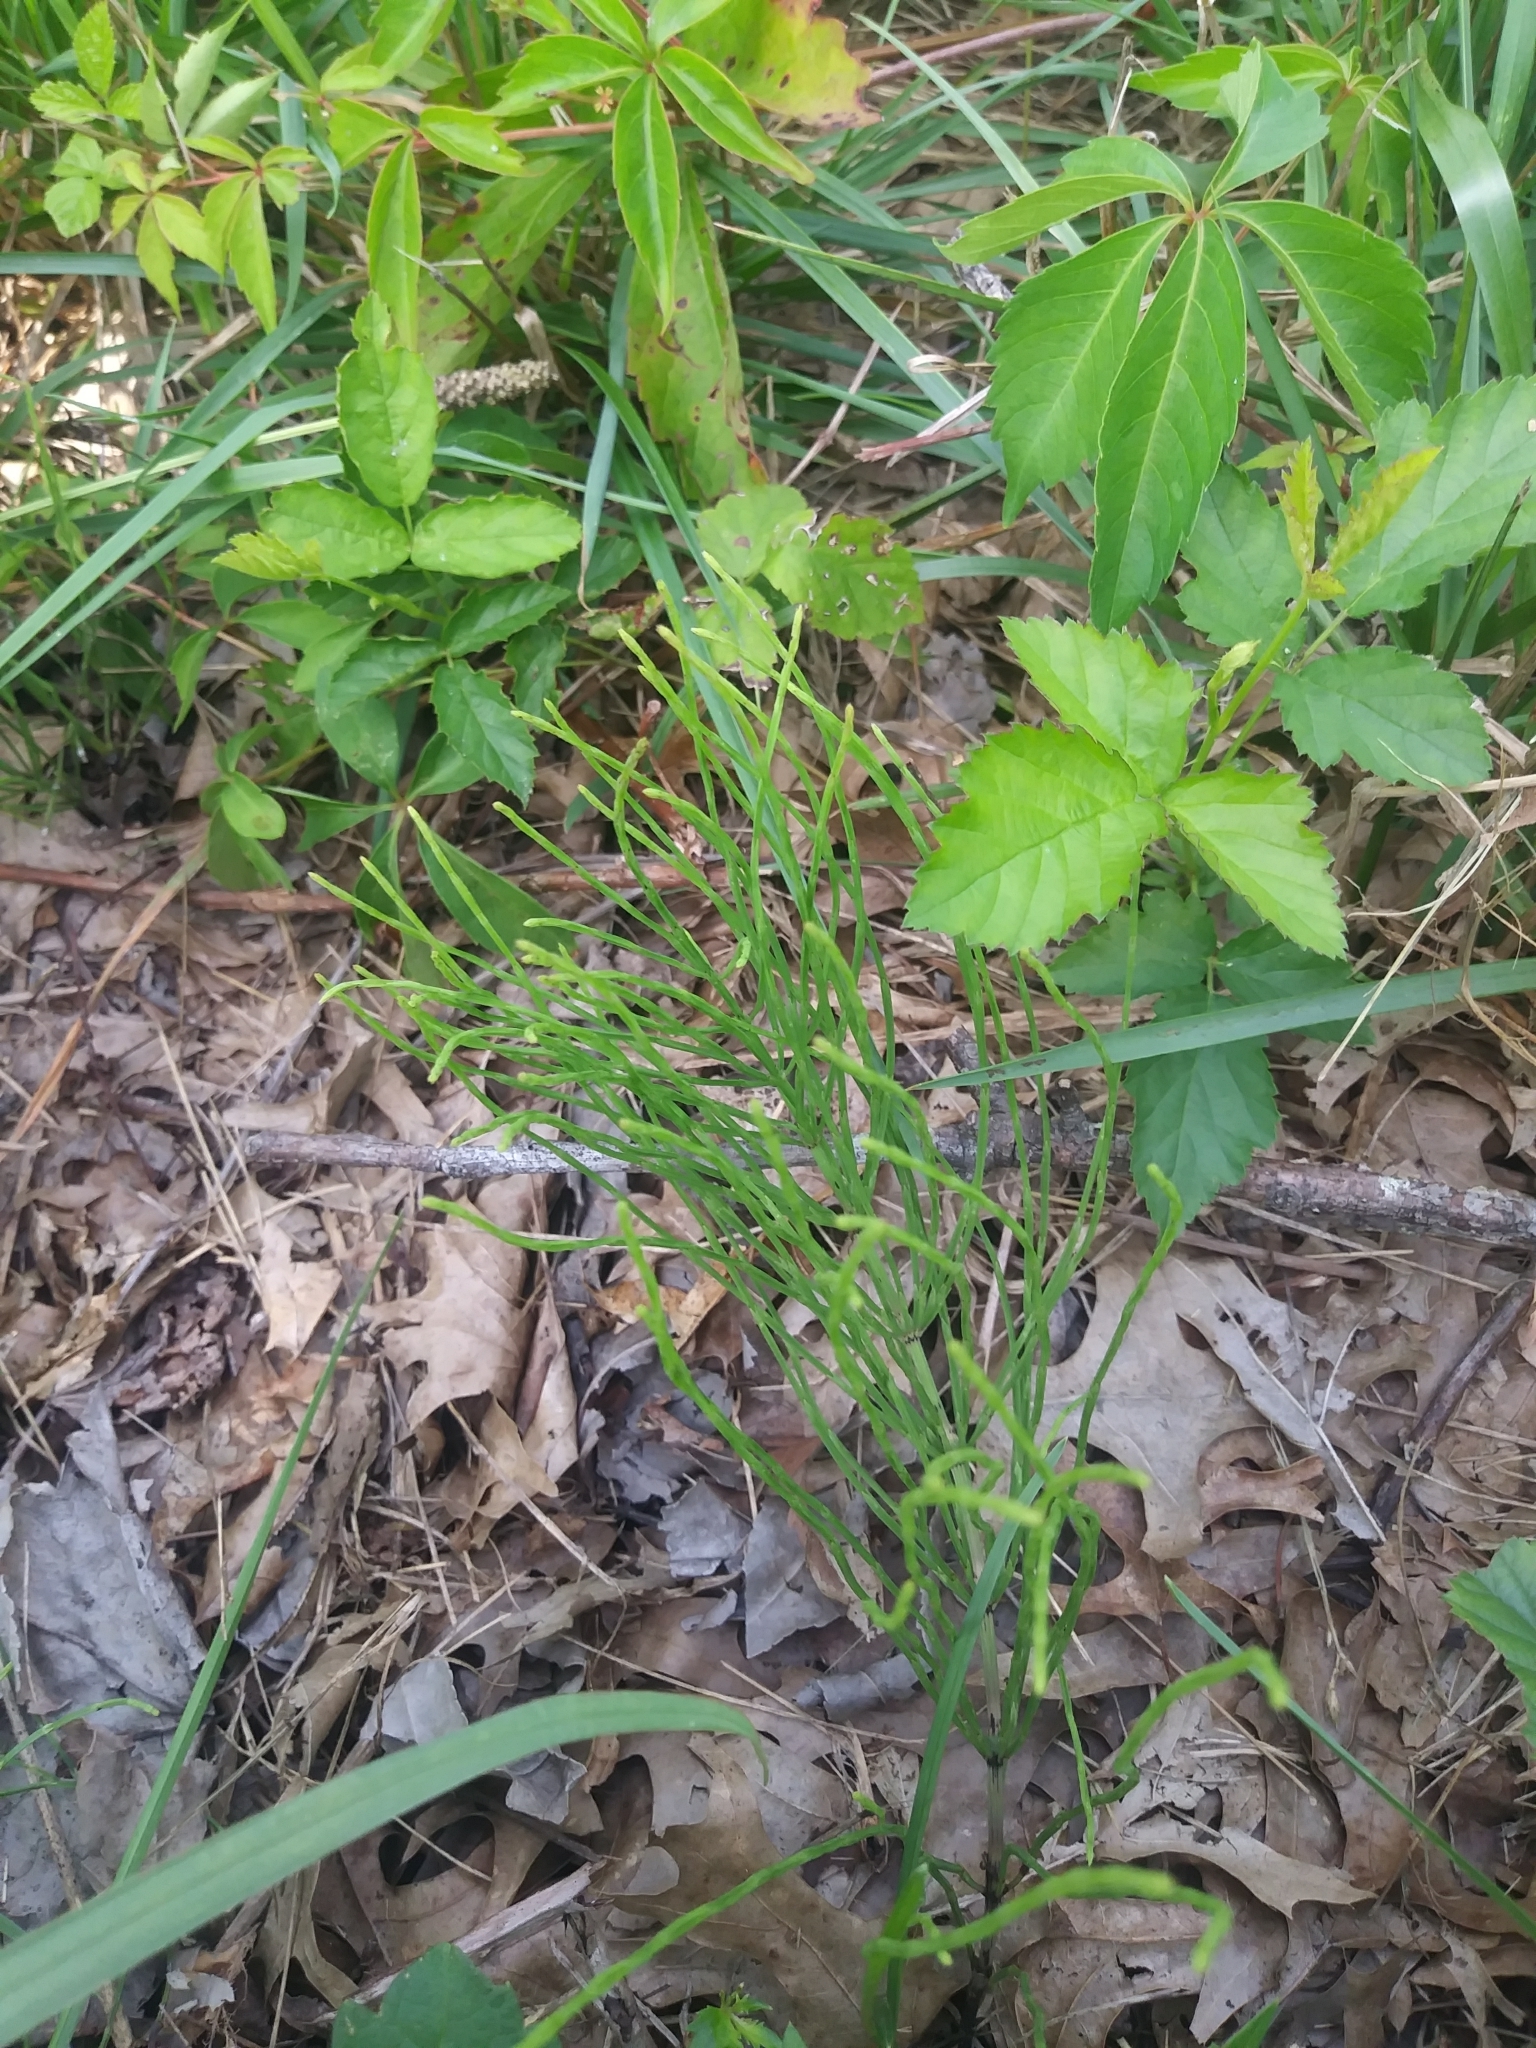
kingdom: Plantae
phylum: Tracheophyta
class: Polypodiopsida
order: Equisetales
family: Equisetaceae
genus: Equisetum
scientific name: Equisetum arvense
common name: Field horsetail
